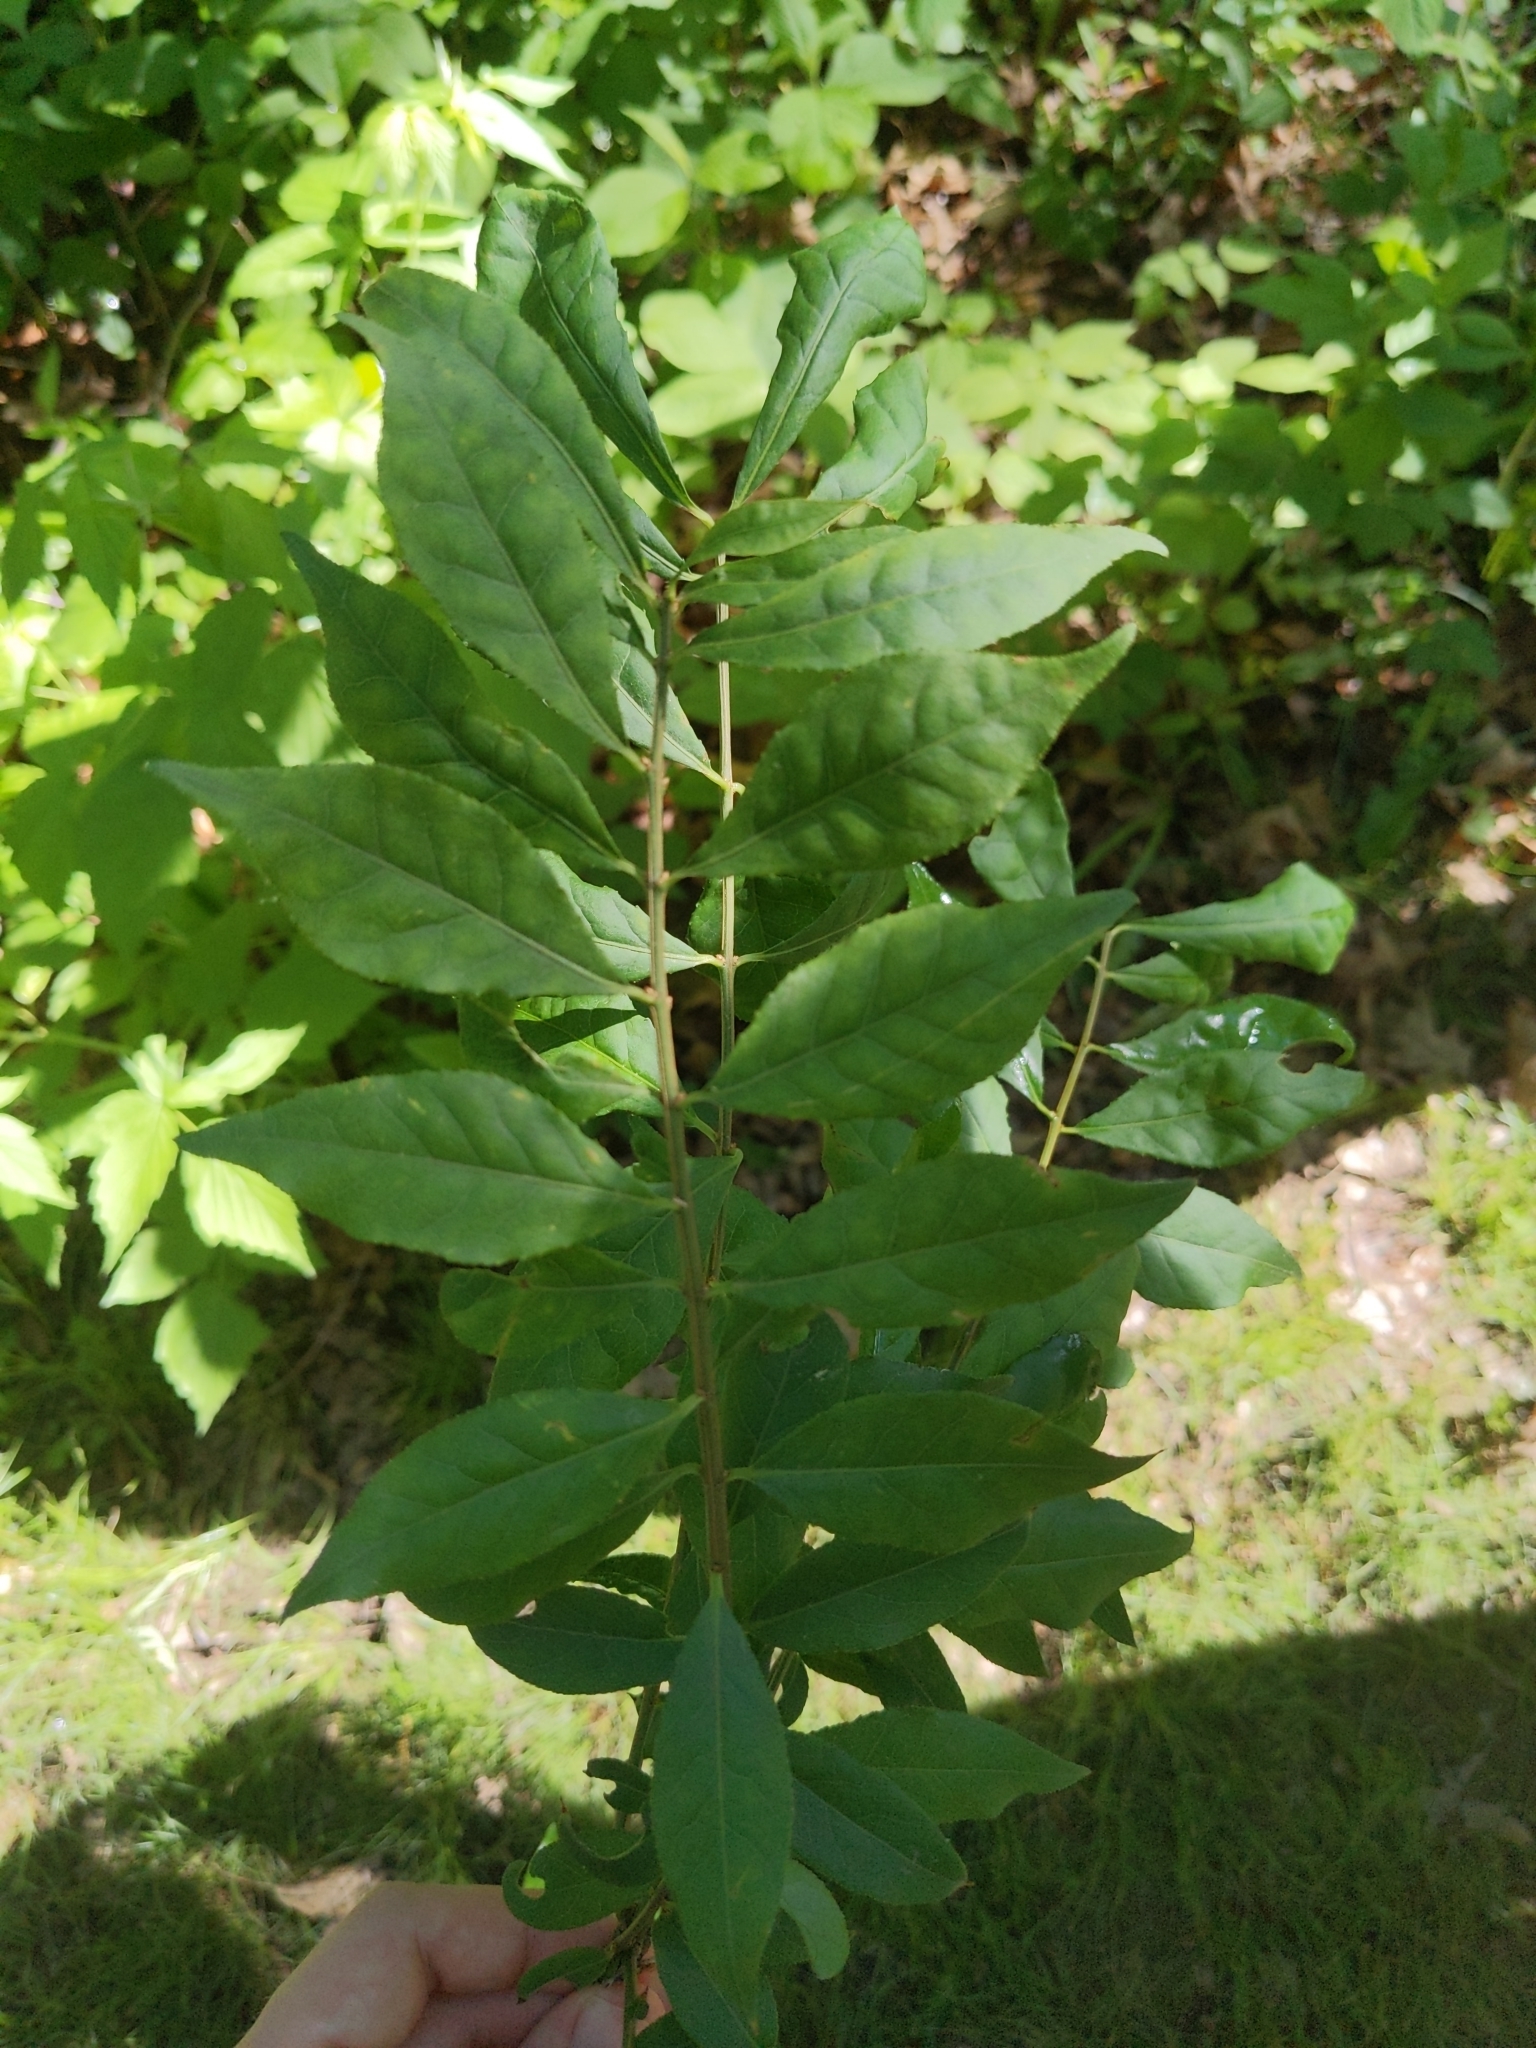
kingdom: Plantae
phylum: Tracheophyta
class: Magnoliopsida
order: Celastrales
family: Celastraceae
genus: Euonymus
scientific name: Euonymus alatus
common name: Winged euonymus
